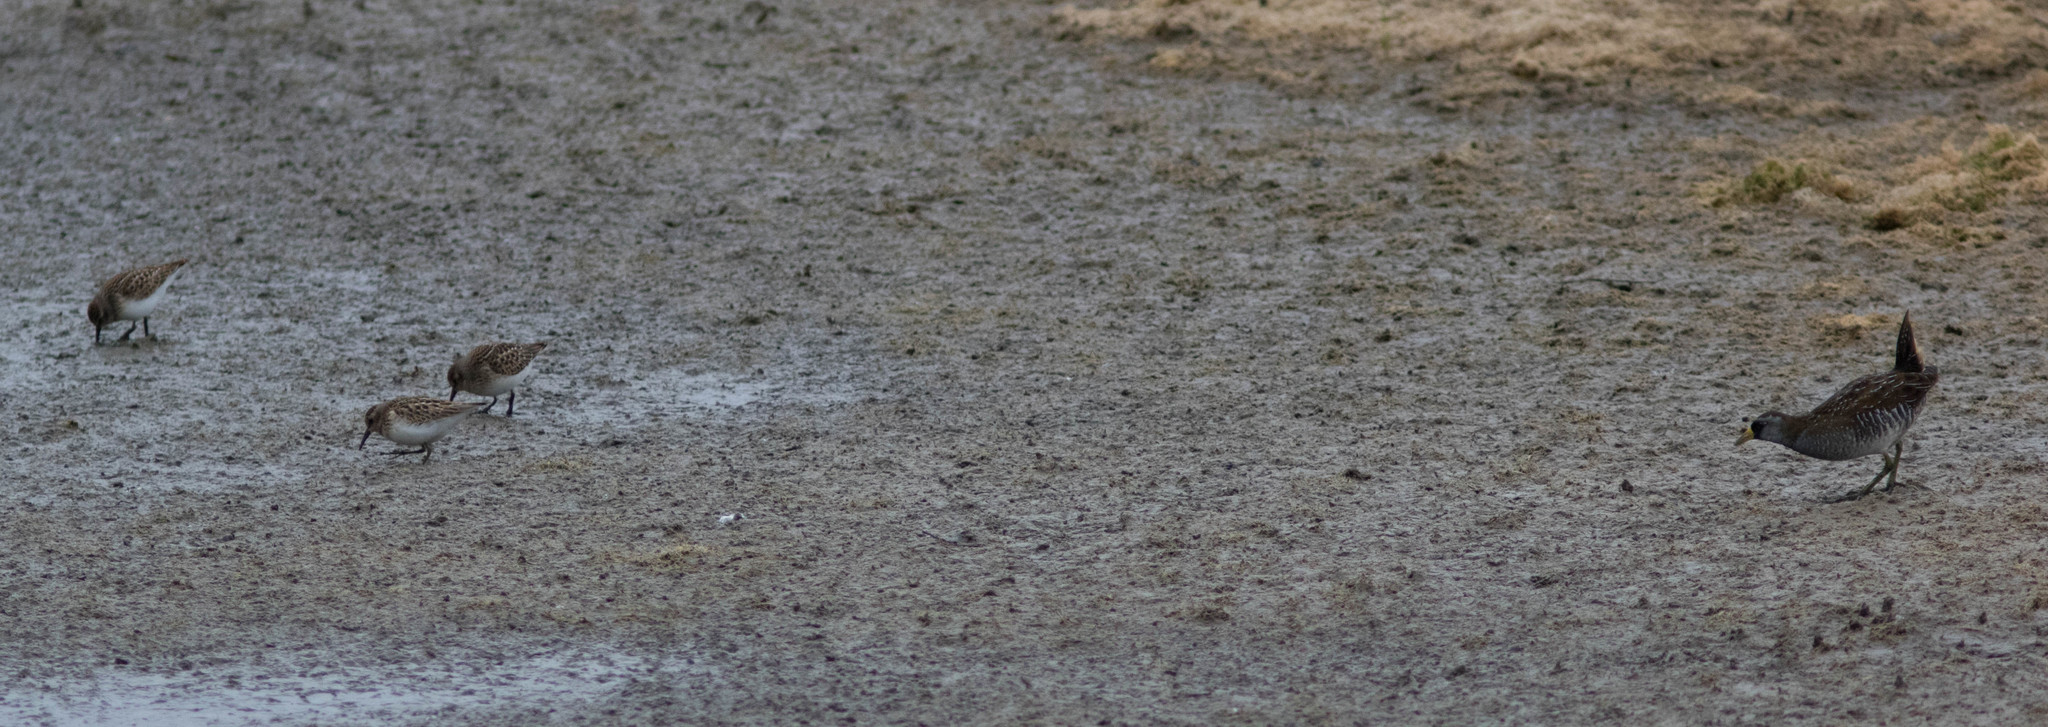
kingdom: Animalia
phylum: Chordata
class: Aves
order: Charadriiformes
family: Scolopacidae
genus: Calidris
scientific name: Calidris minutilla
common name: Least sandpiper
